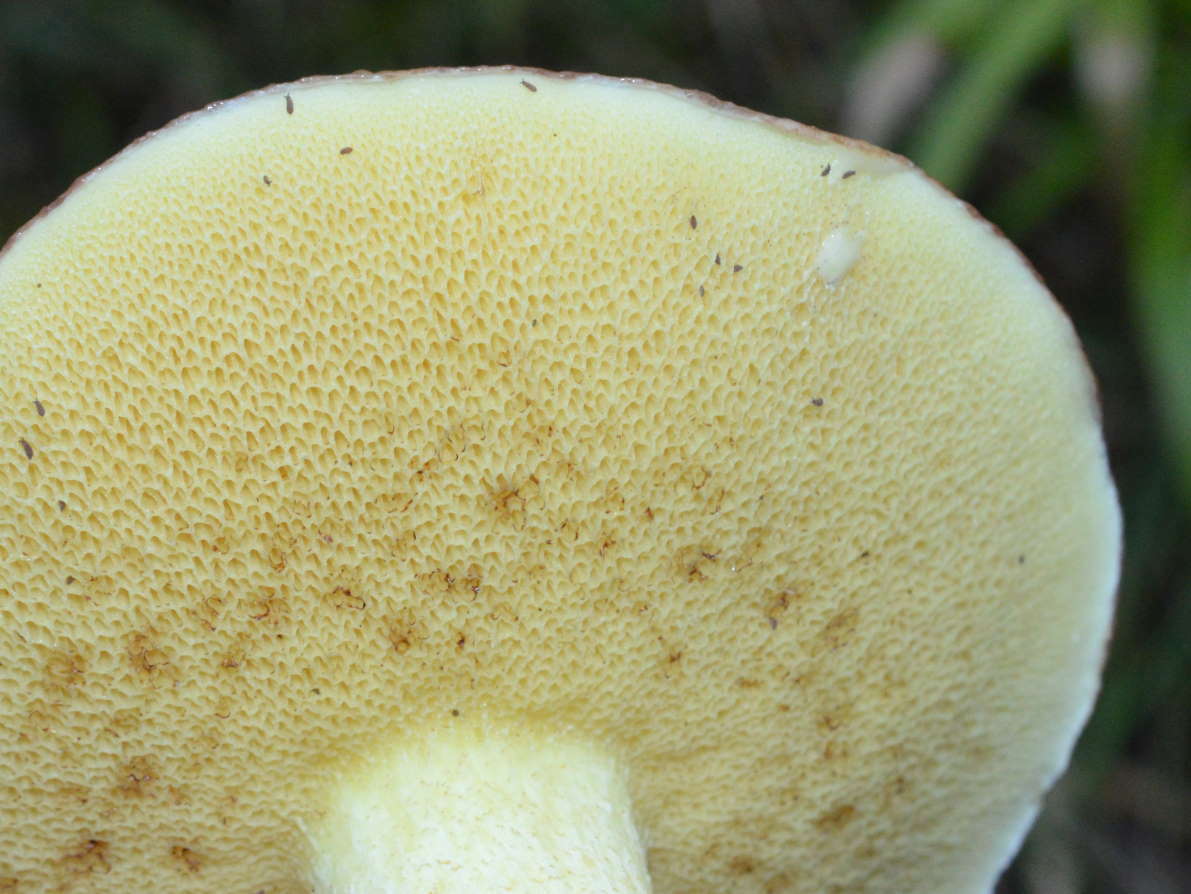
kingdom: Fungi
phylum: Basidiomycota
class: Agaricomycetes
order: Boletales
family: Suillaceae
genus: Suillus
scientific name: Suillus granulatus
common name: Weeping bolete
